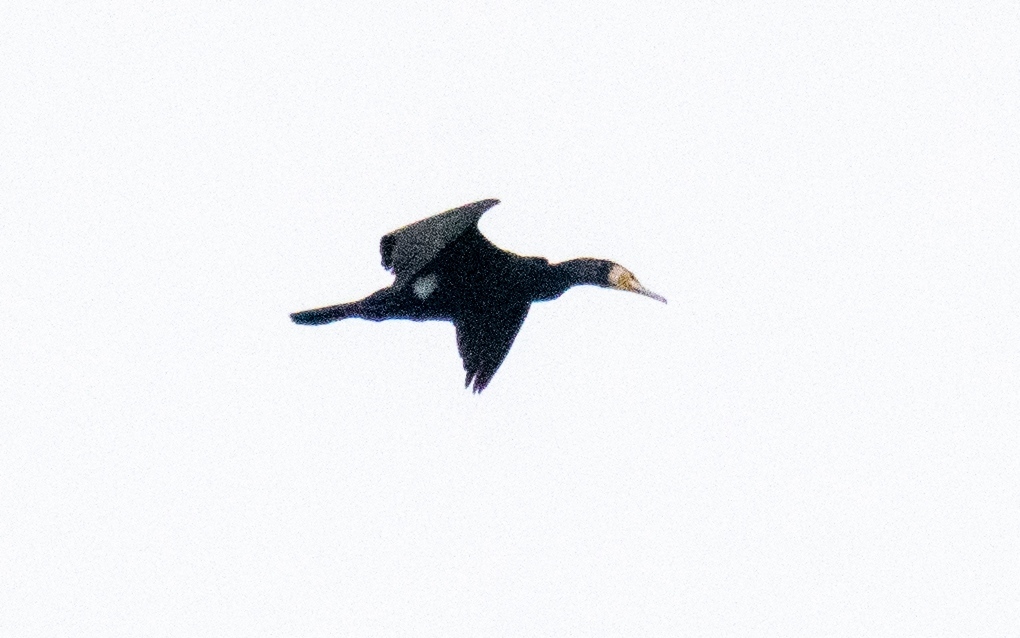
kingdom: Animalia
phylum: Chordata
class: Aves
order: Suliformes
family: Phalacrocoracidae
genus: Phalacrocorax
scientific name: Phalacrocorax carbo
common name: Great cormorant
